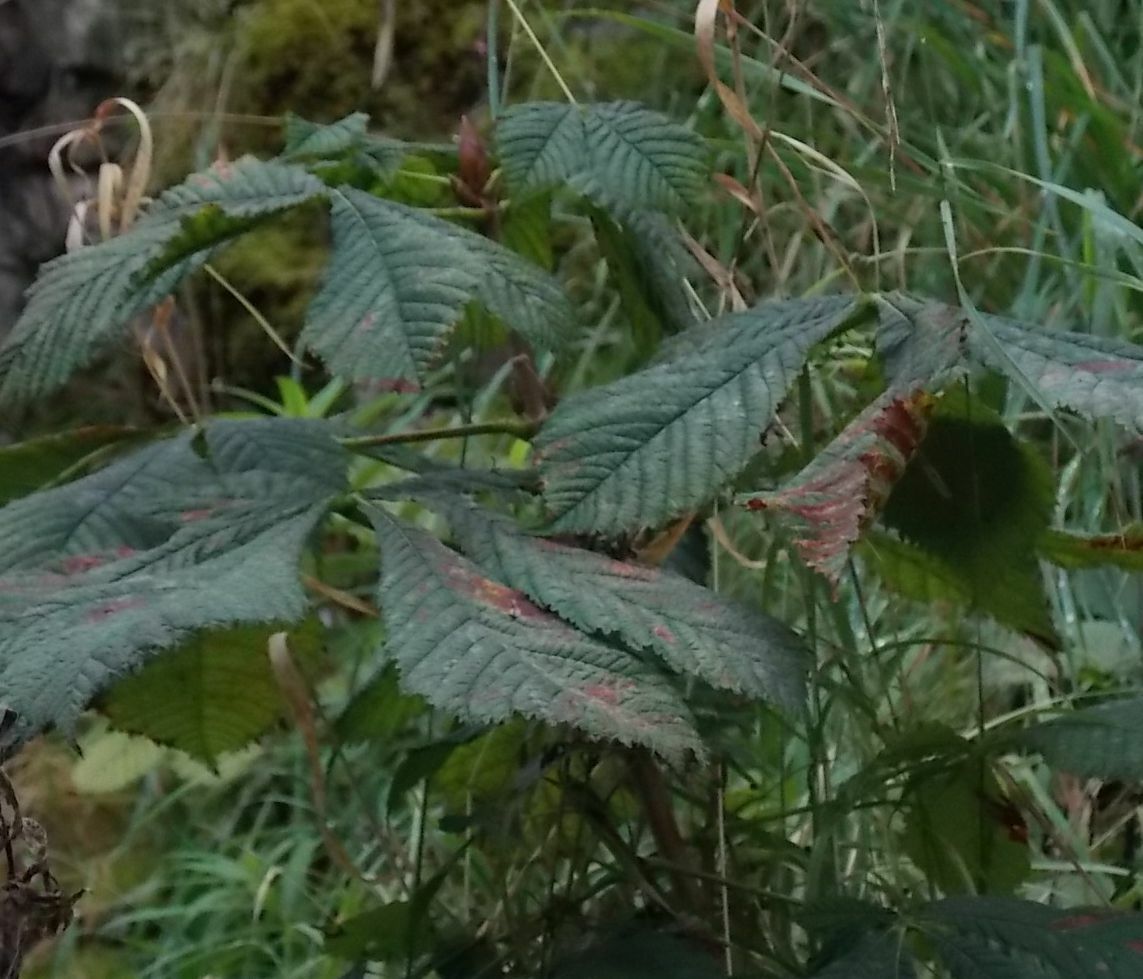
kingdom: Plantae
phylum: Tracheophyta
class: Magnoliopsida
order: Sapindales
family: Sapindaceae
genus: Aesculus
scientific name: Aesculus hippocastanum
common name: Horse-chestnut
